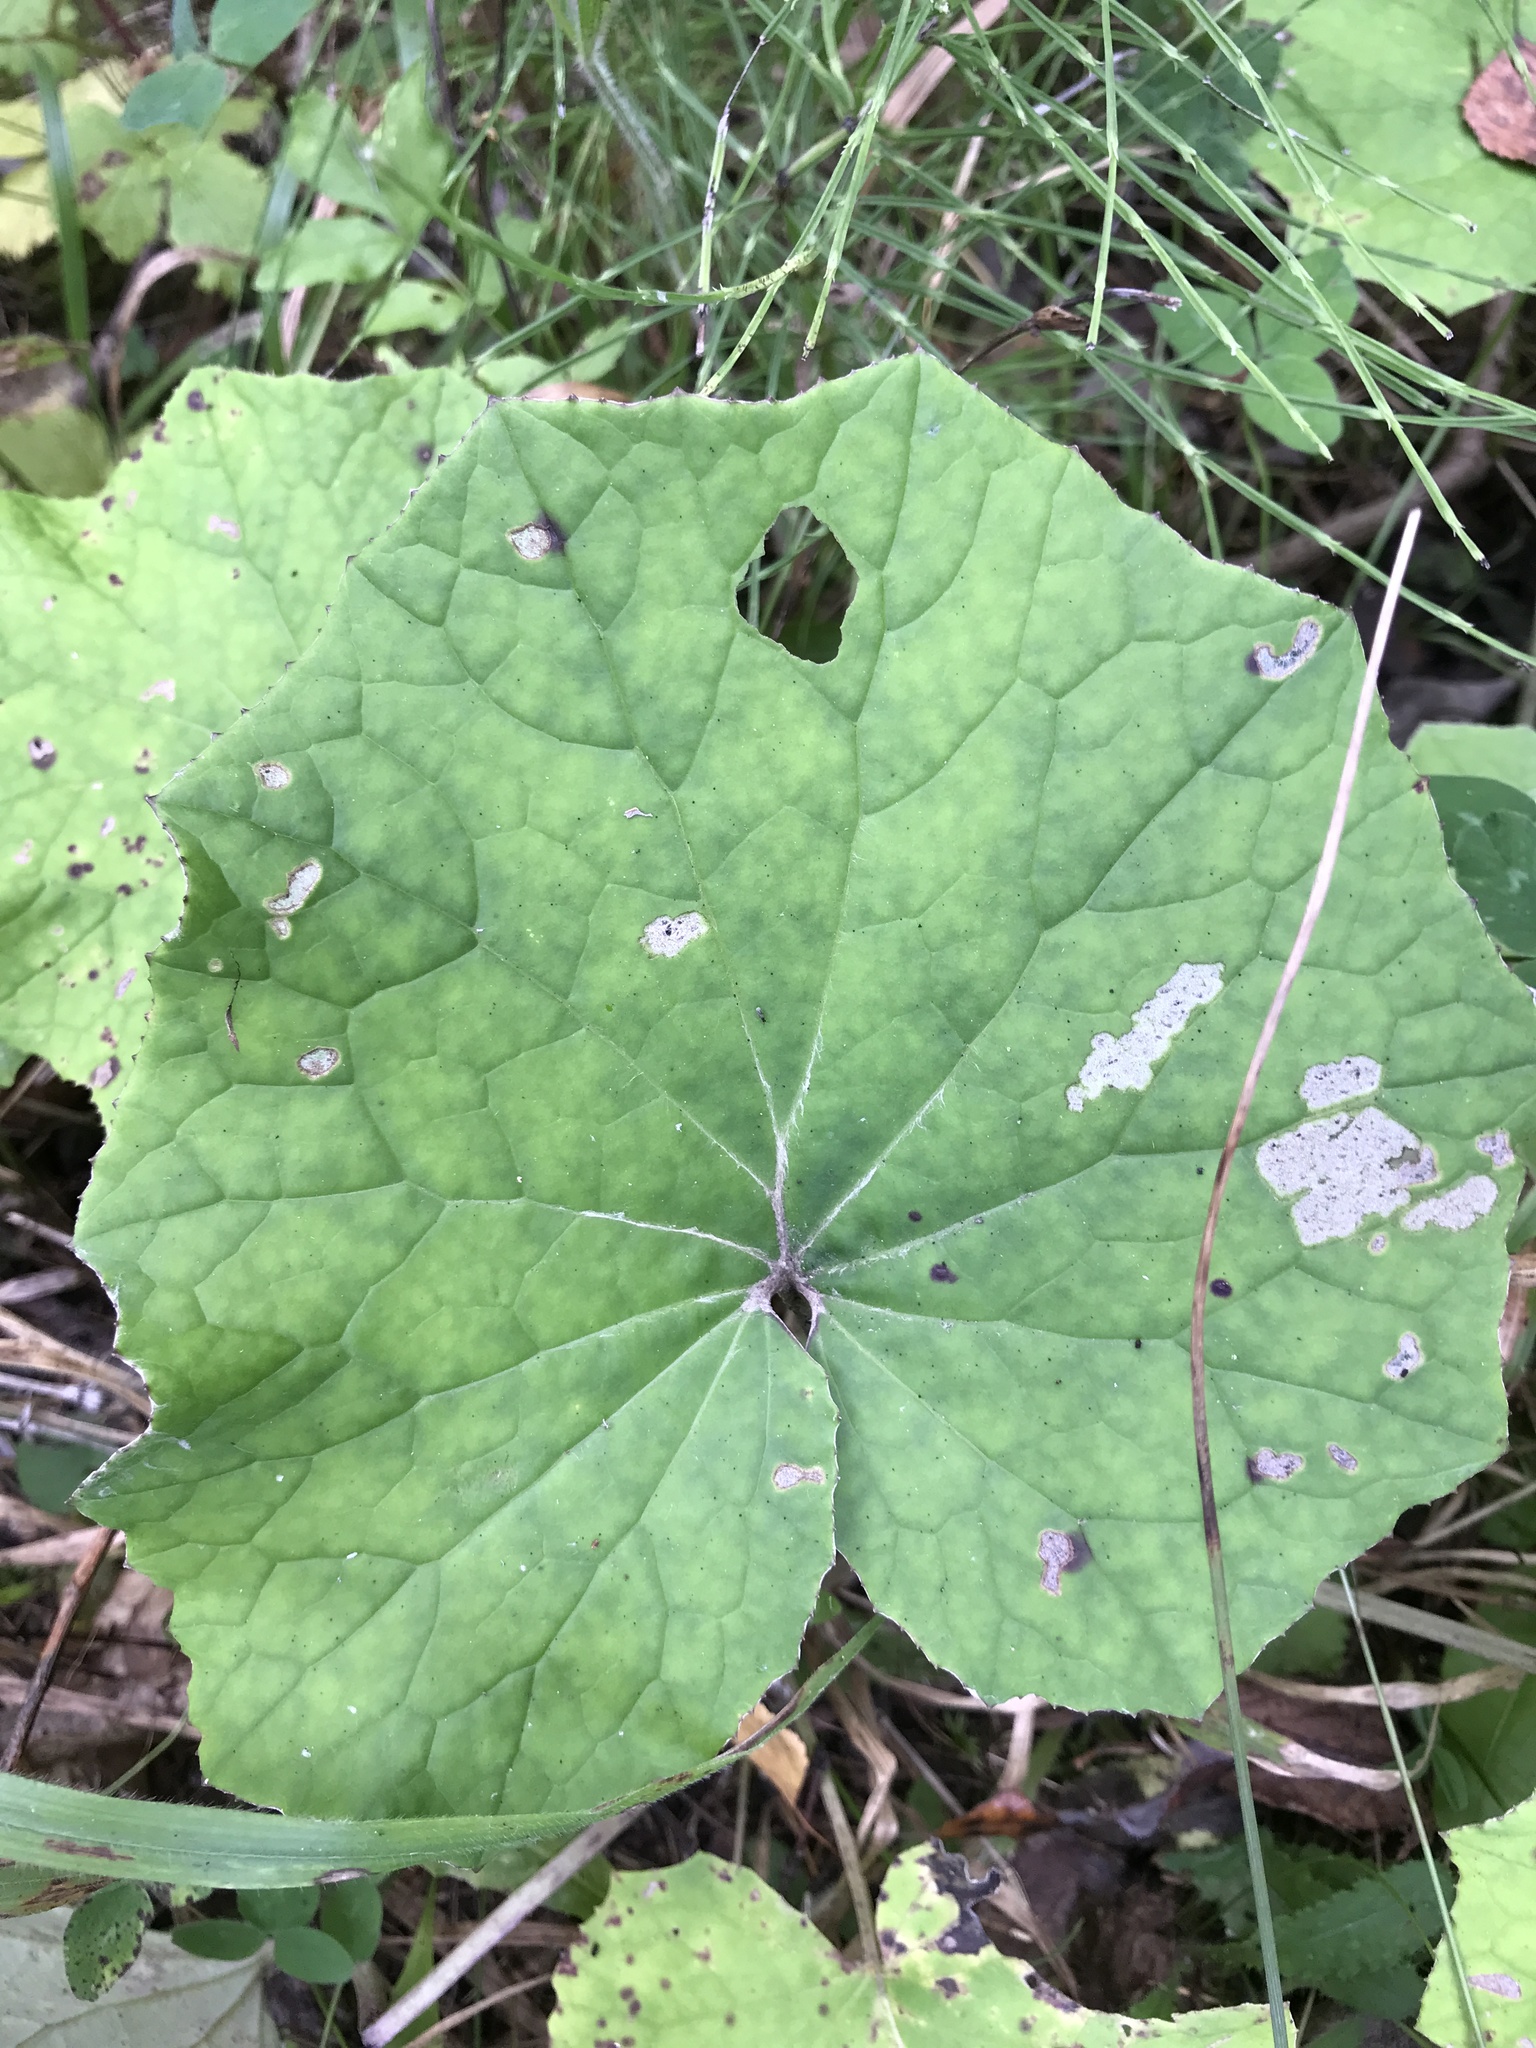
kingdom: Plantae
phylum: Tracheophyta
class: Magnoliopsida
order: Asterales
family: Asteraceae
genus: Tussilago
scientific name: Tussilago farfara
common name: Coltsfoot
